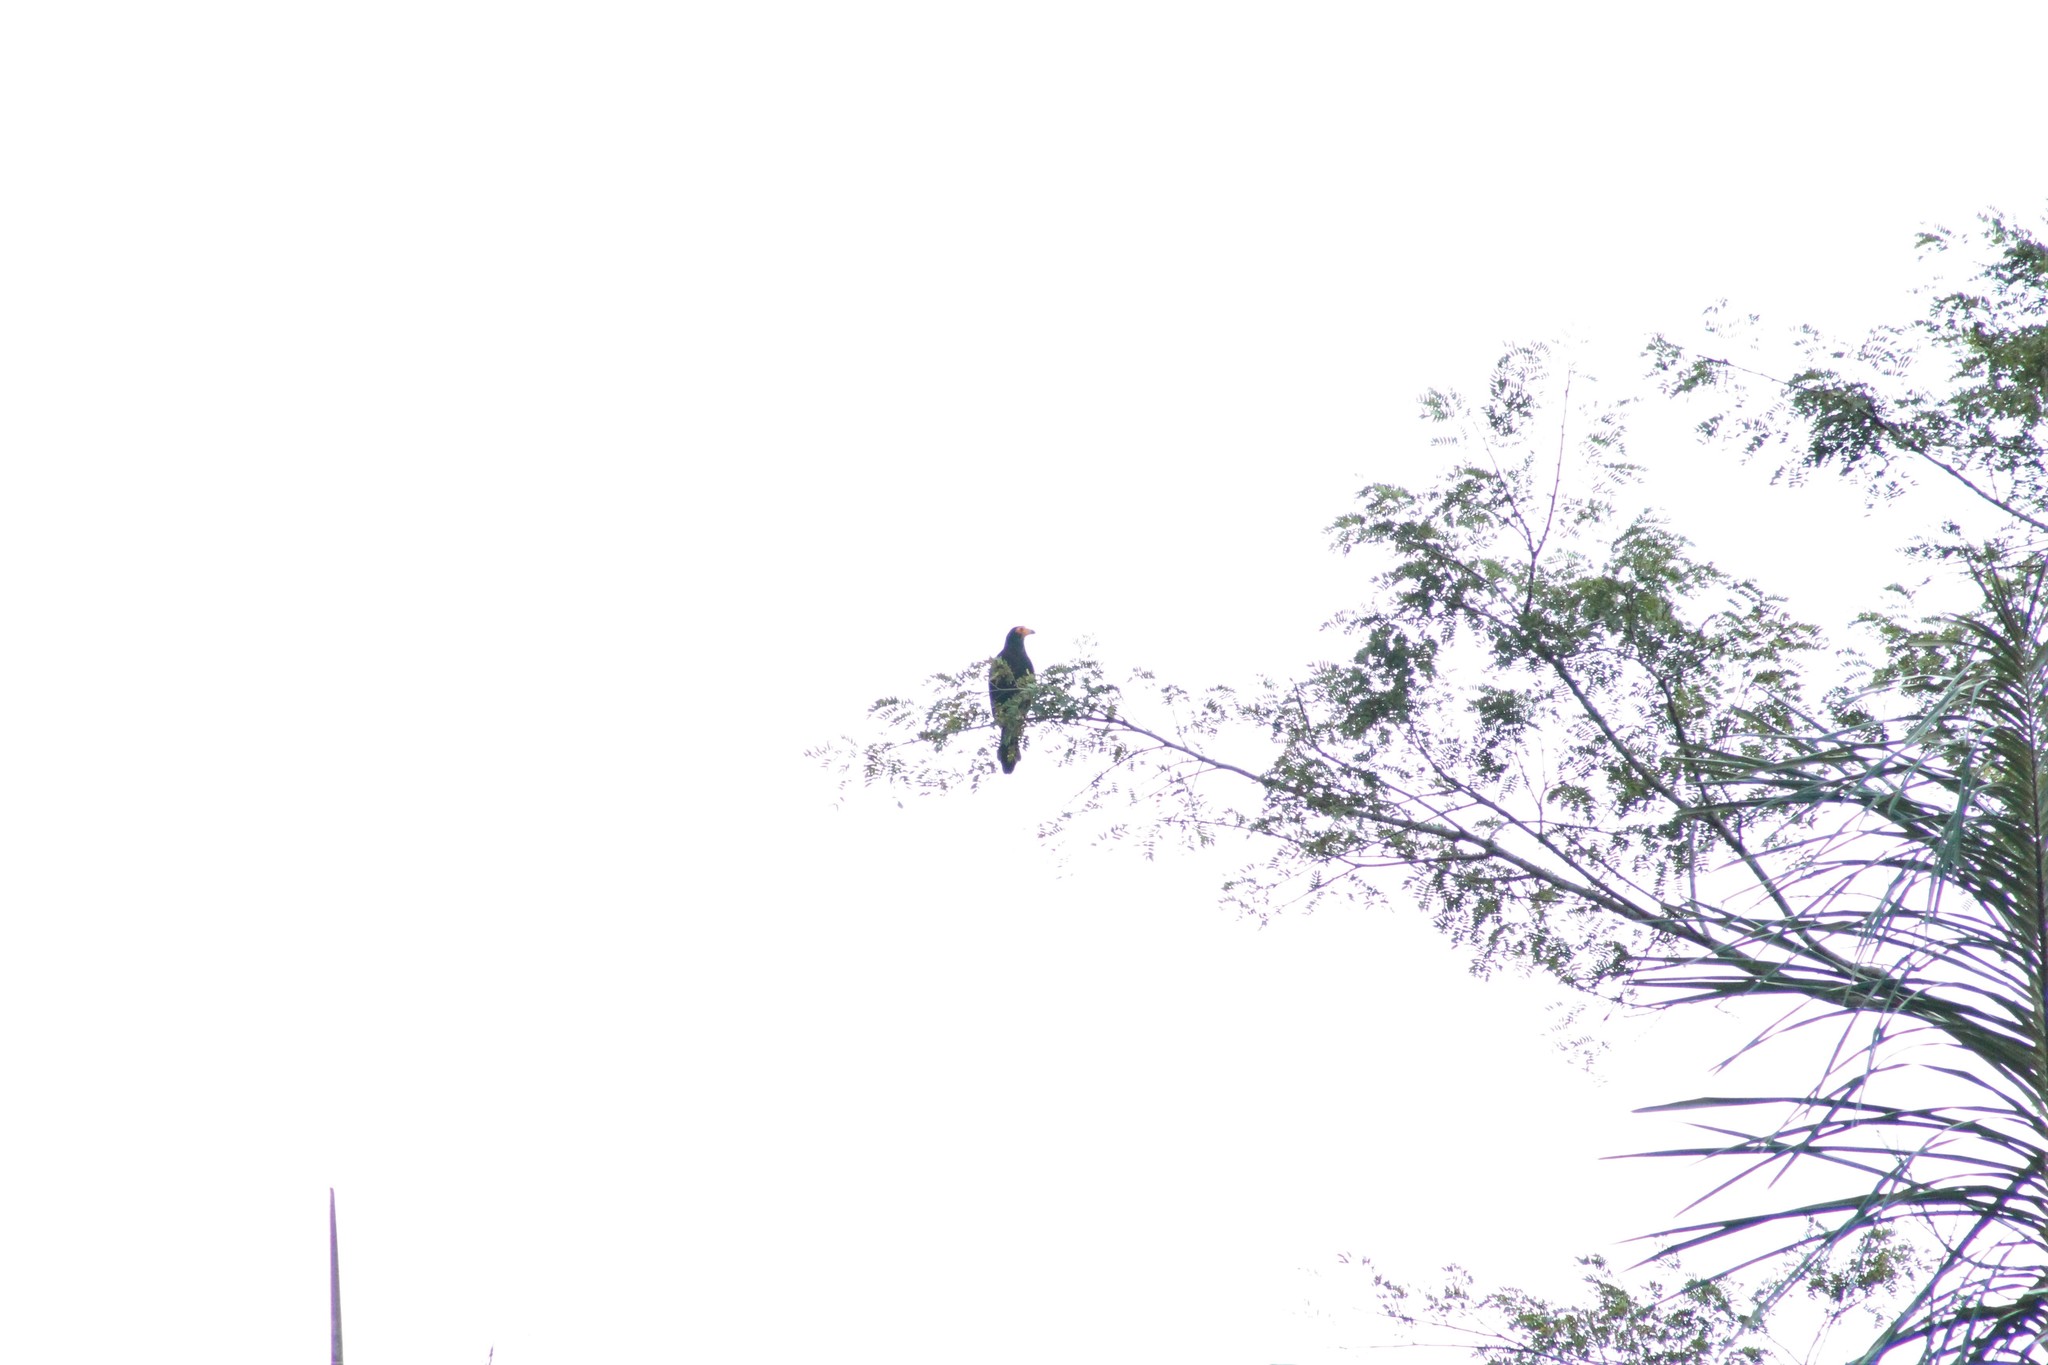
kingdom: Animalia
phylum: Chordata
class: Aves
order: Falconiformes
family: Falconidae
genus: Daptrius
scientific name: Daptrius ater
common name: Black caracara
